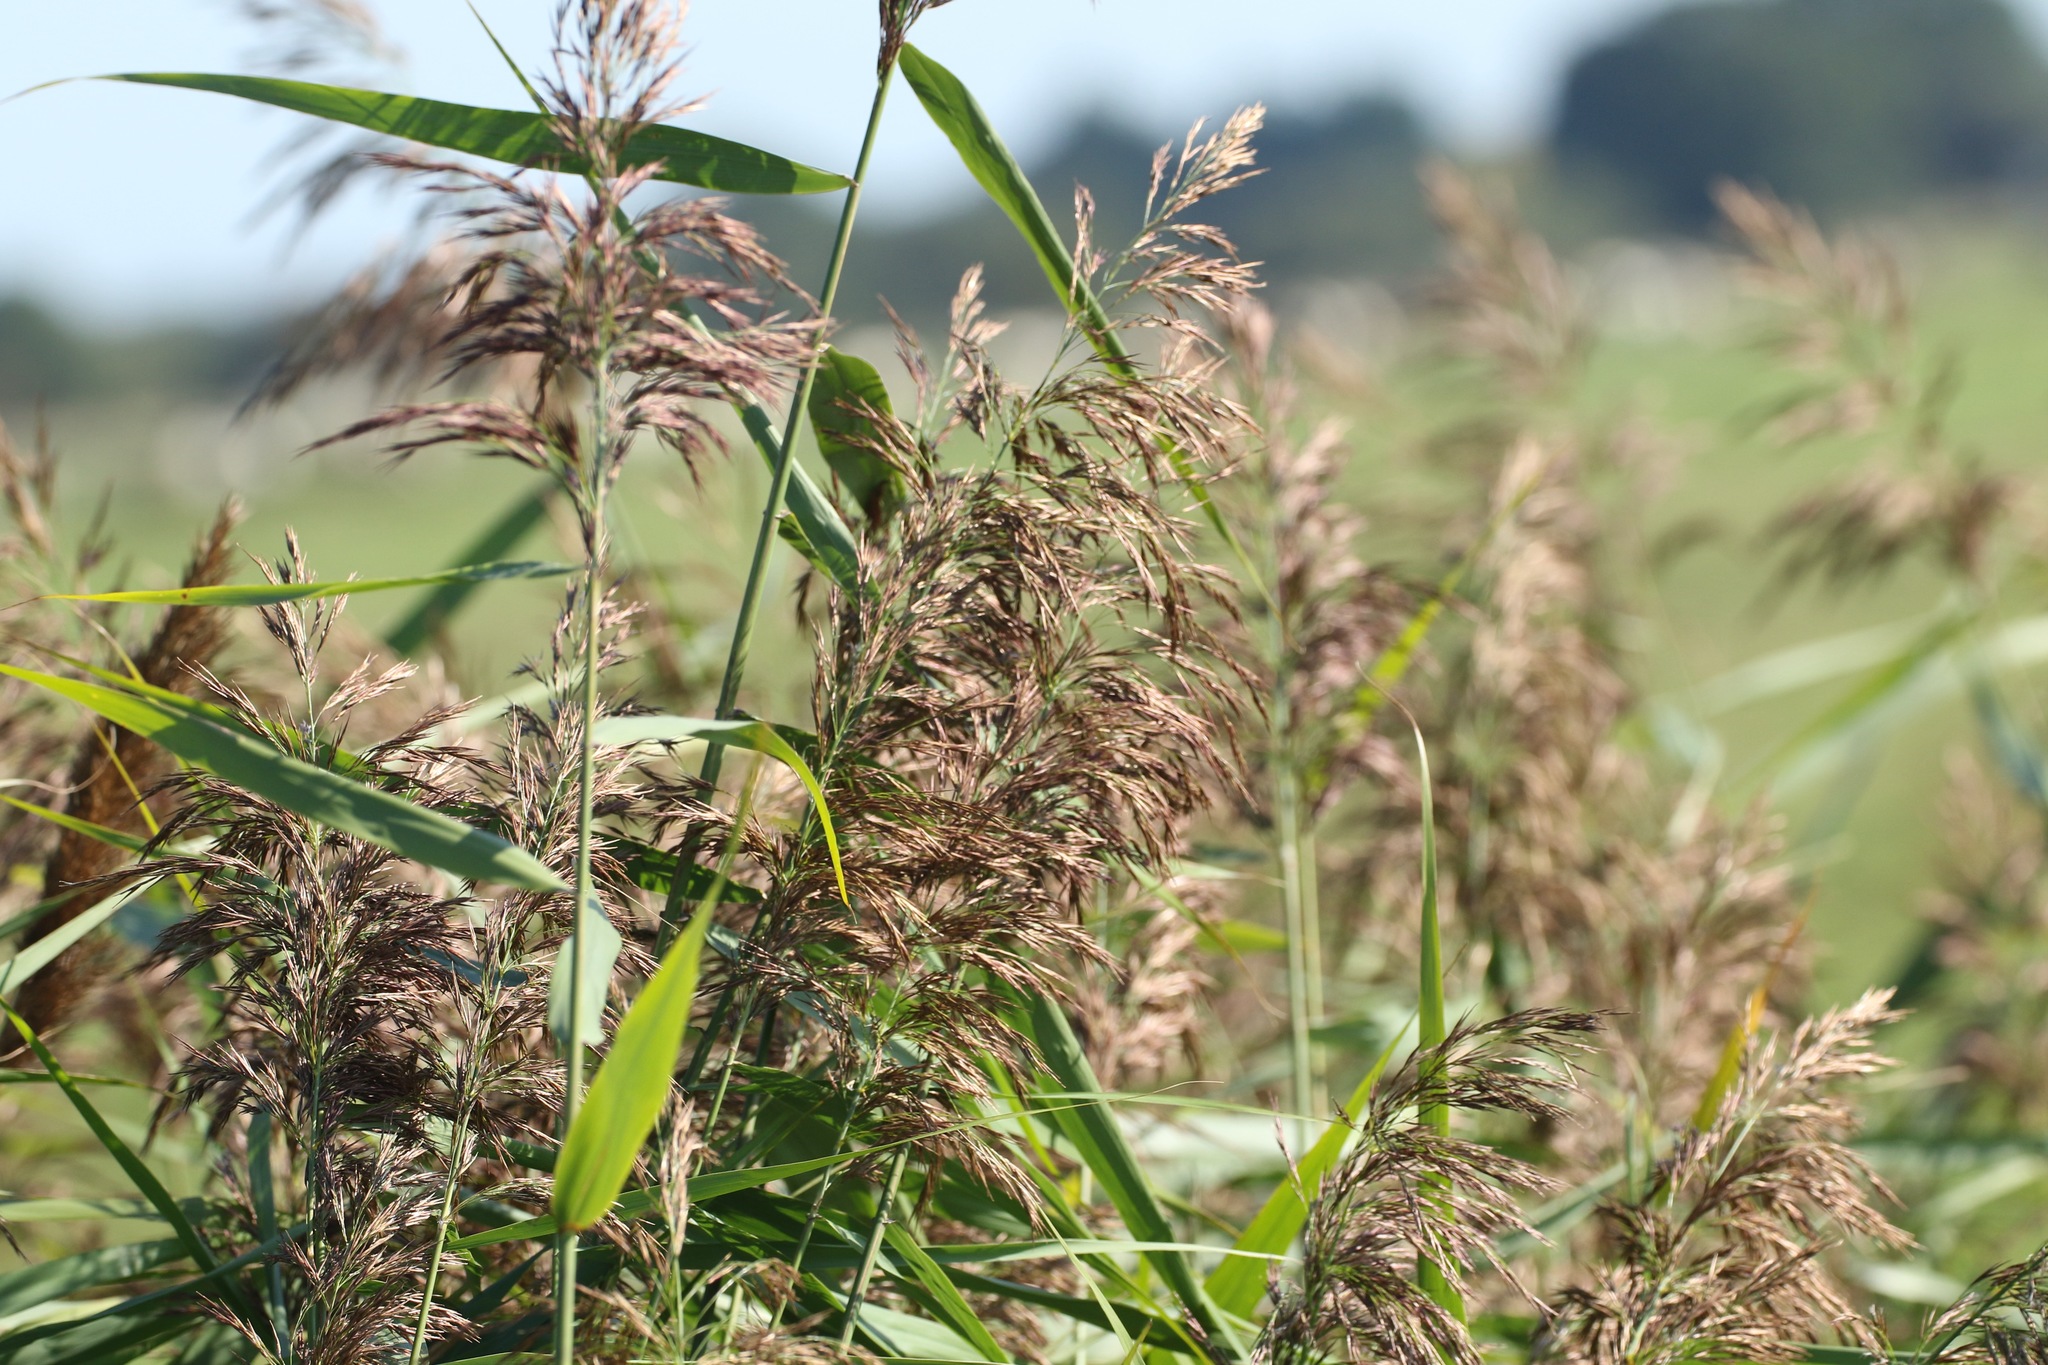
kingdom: Plantae
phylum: Tracheophyta
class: Liliopsida
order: Poales
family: Poaceae
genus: Phragmites
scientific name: Phragmites australis
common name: Common reed
